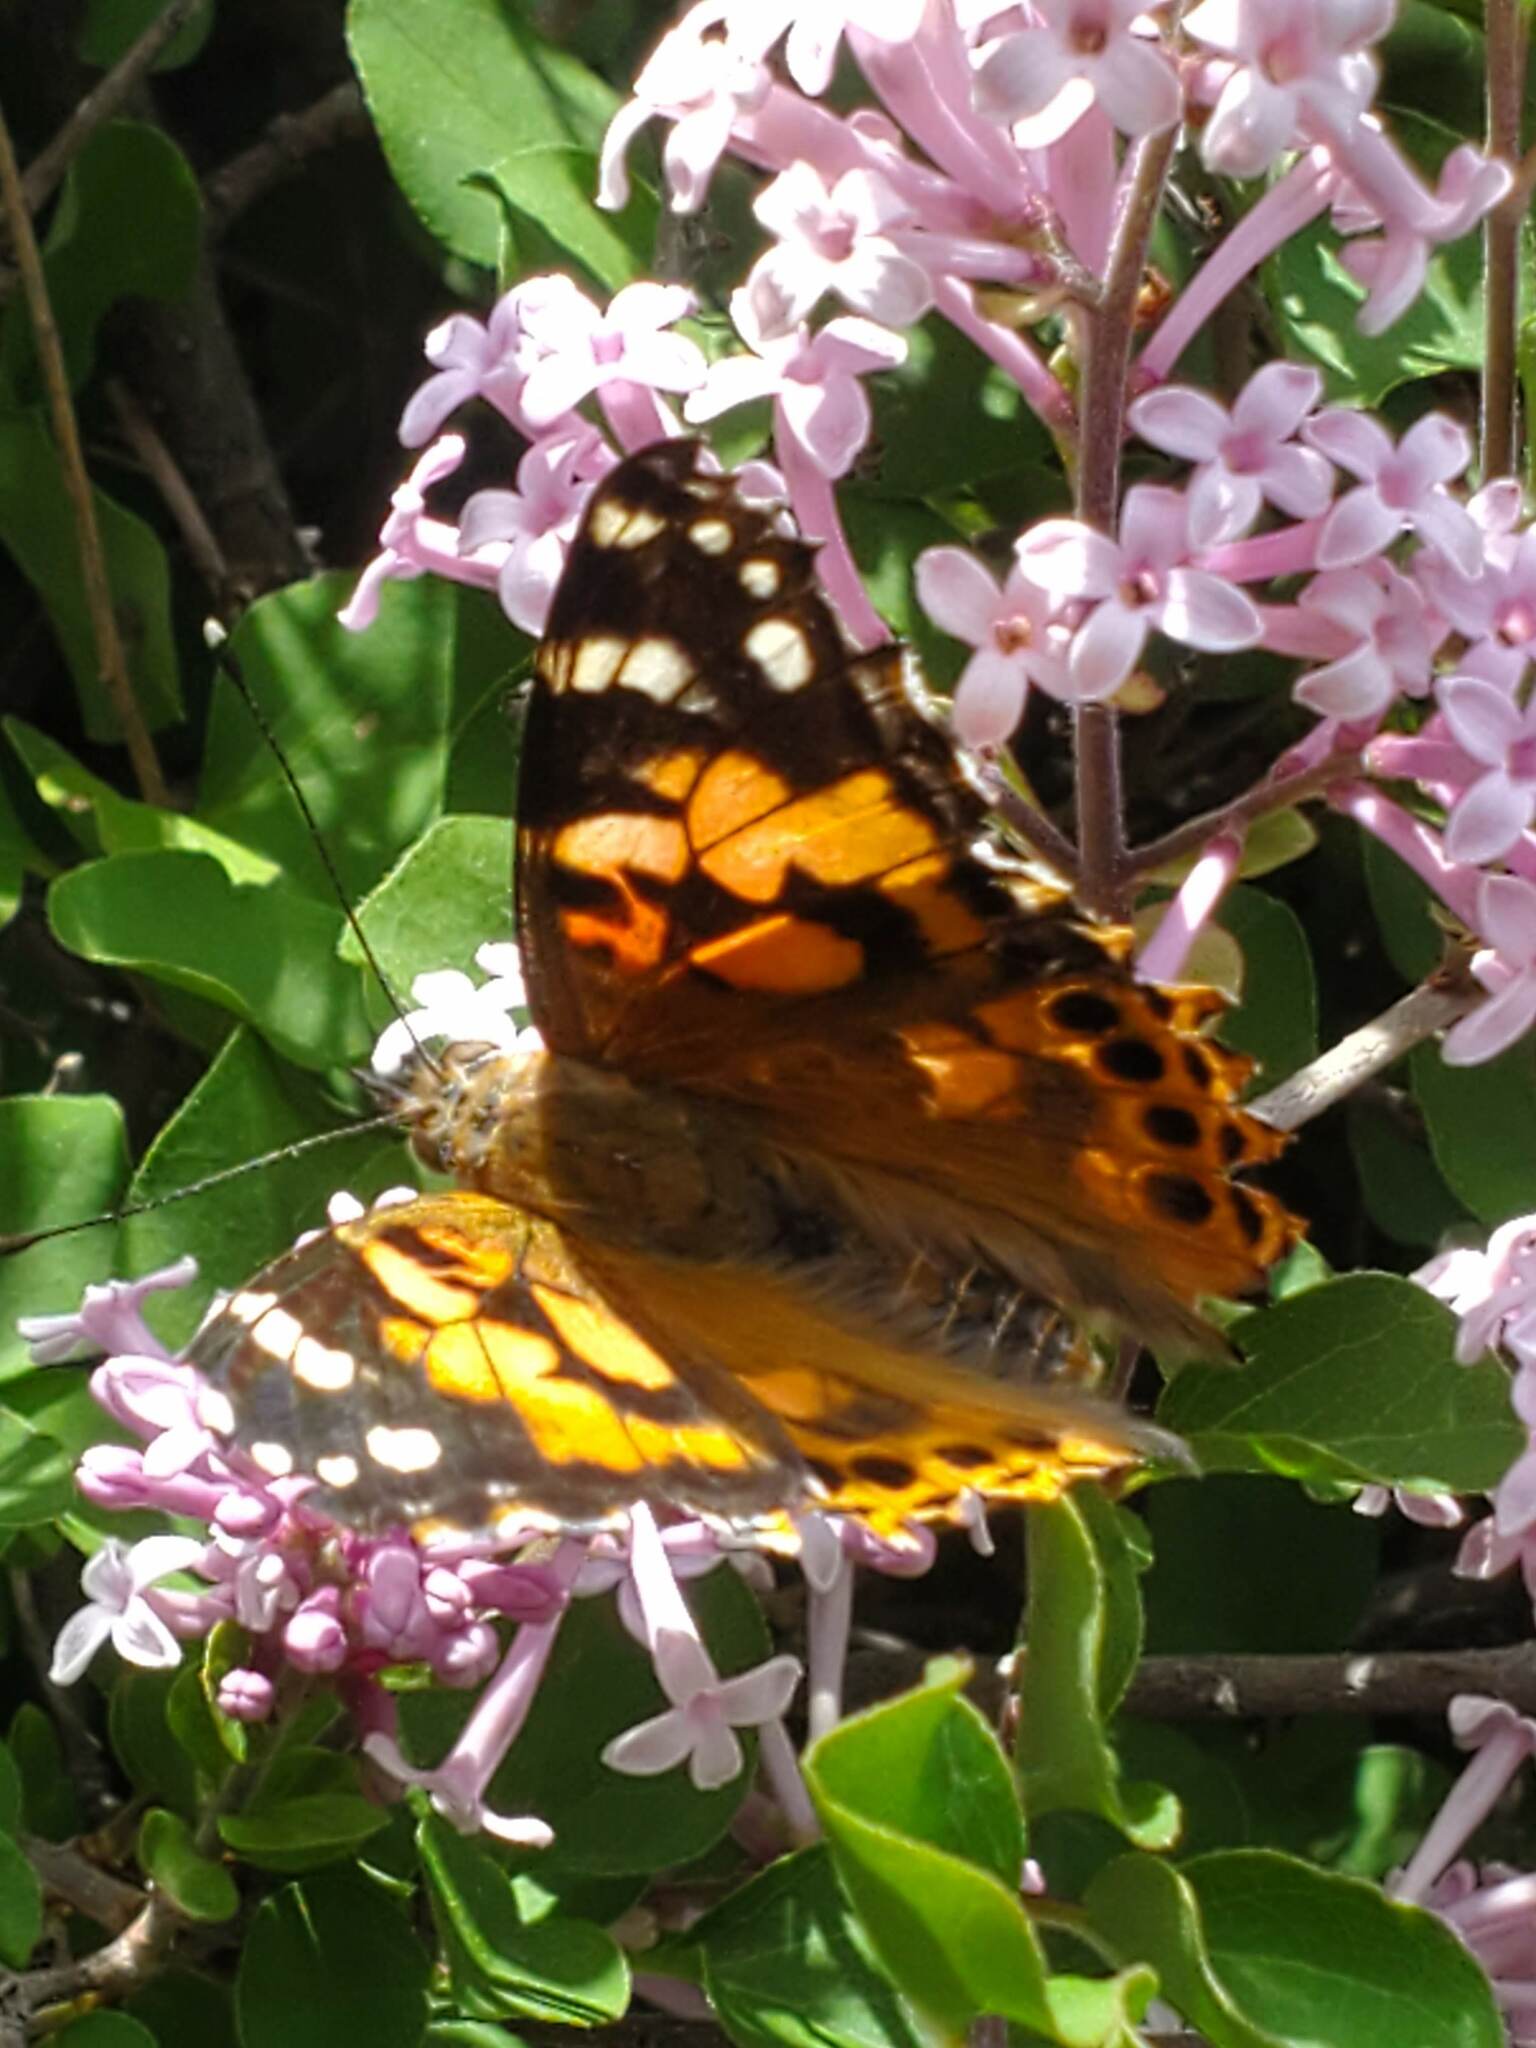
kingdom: Animalia
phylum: Arthropoda
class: Insecta
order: Lepidoptera
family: Nymphalidae
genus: Vanessa
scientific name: Vanessa cardui
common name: Painted lady
